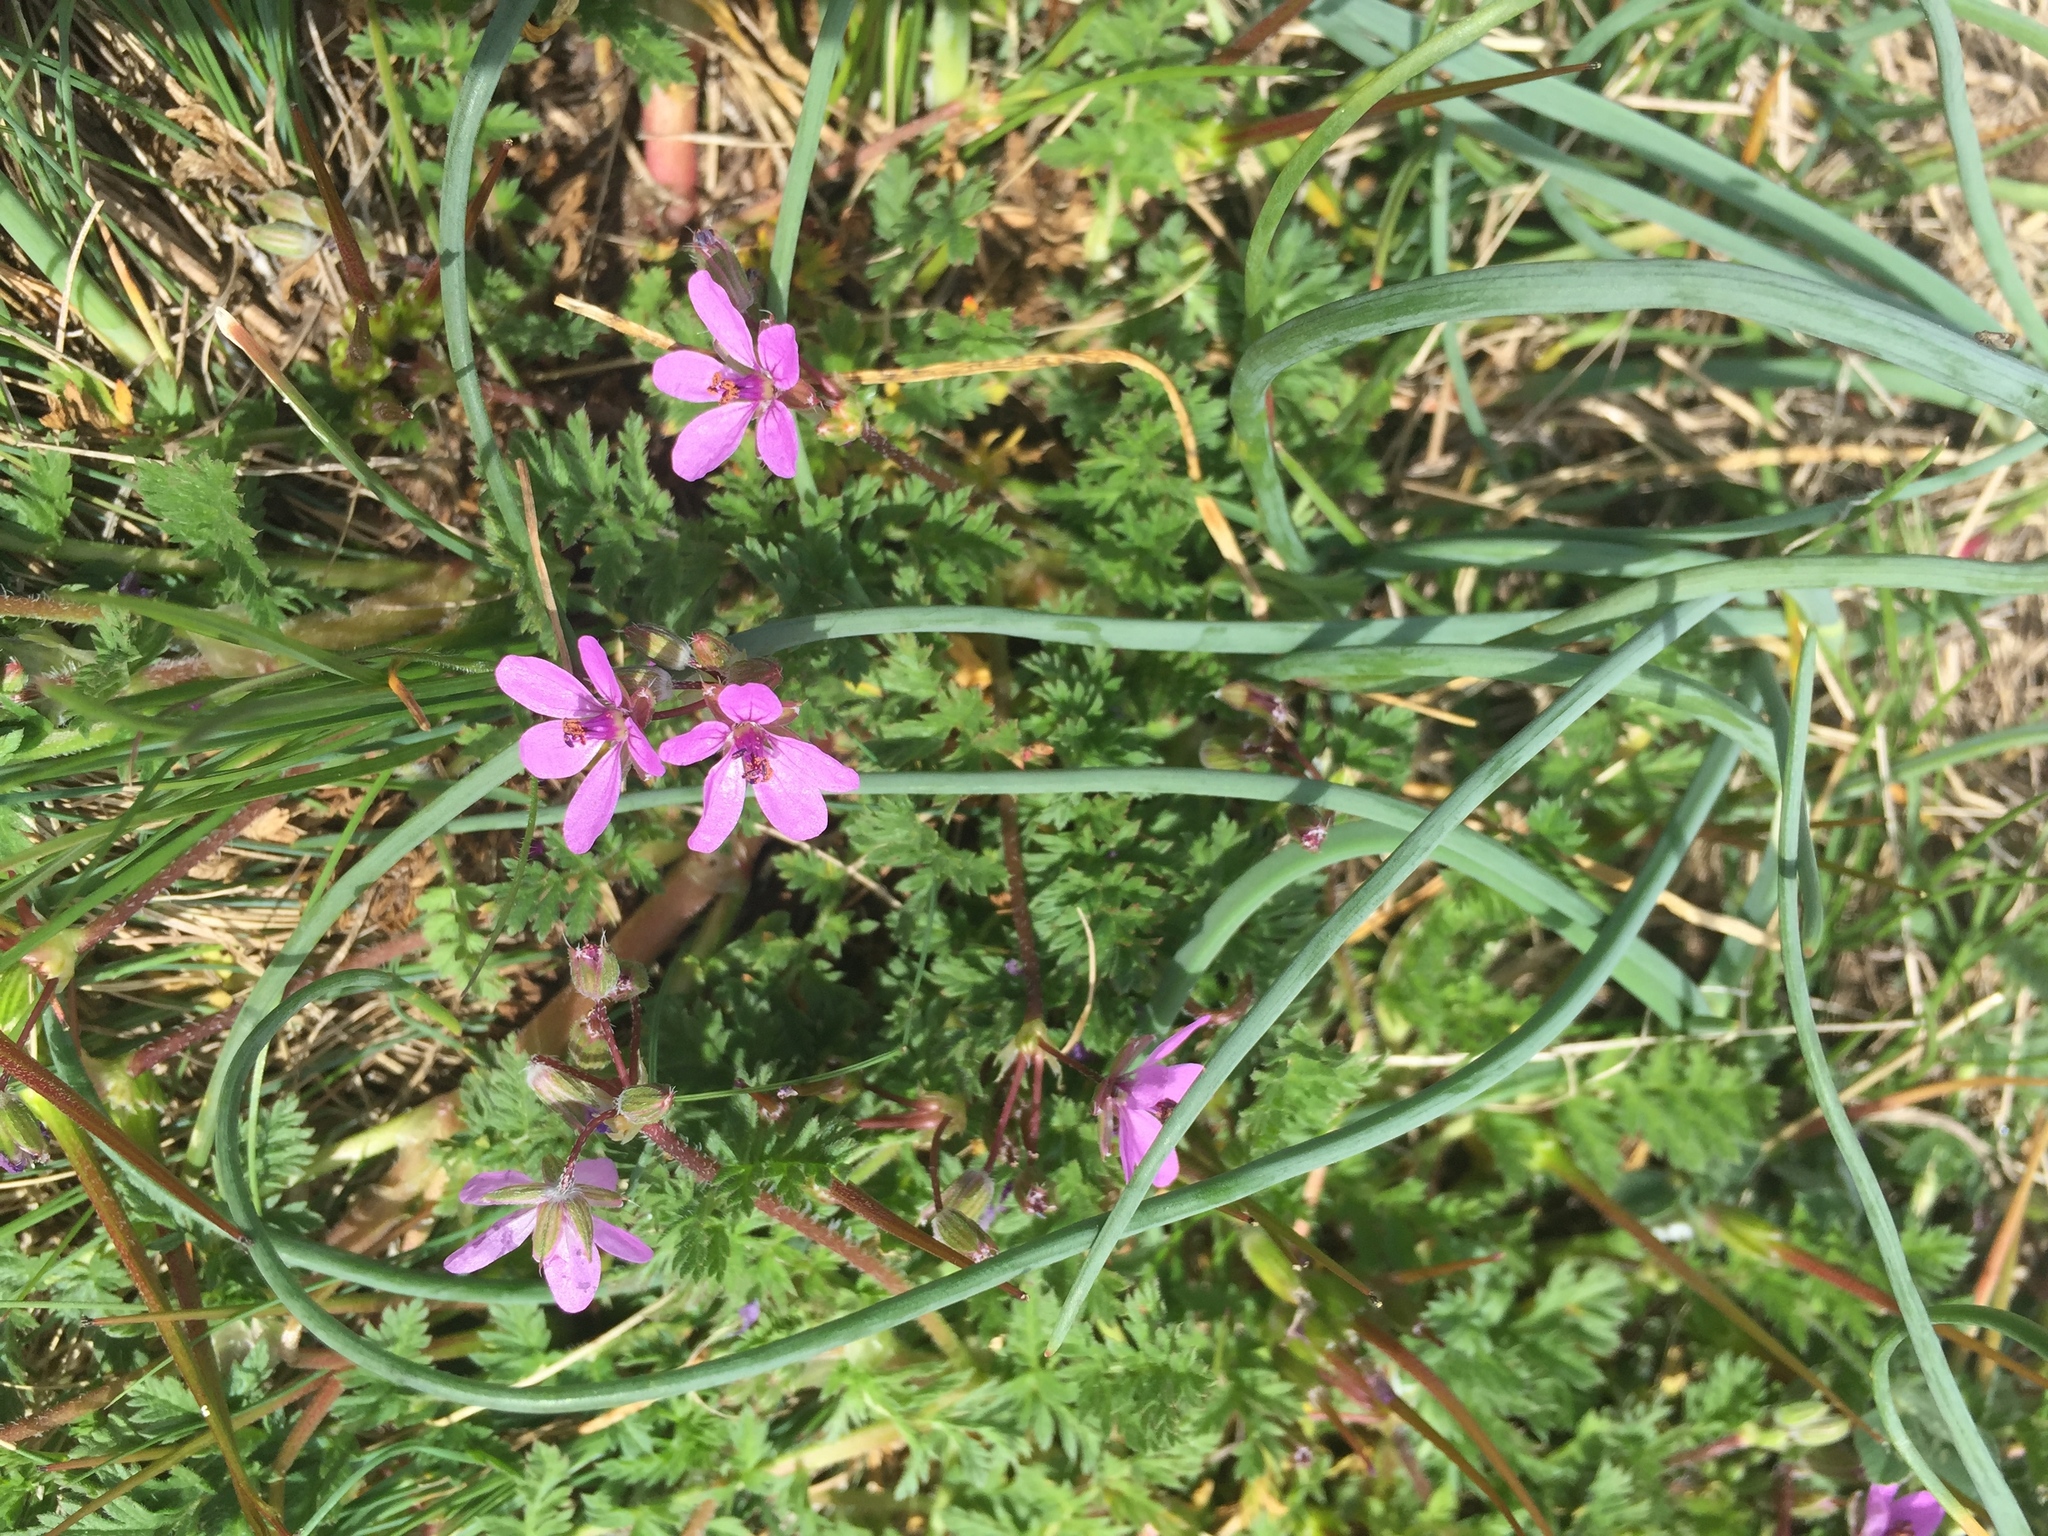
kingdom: Plantae
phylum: Tracheophyta
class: Magnoliopsida
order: Geraniales
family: Geraniaceae
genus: Erodium
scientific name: Erodium cicutarium
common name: Common stork's-bill
